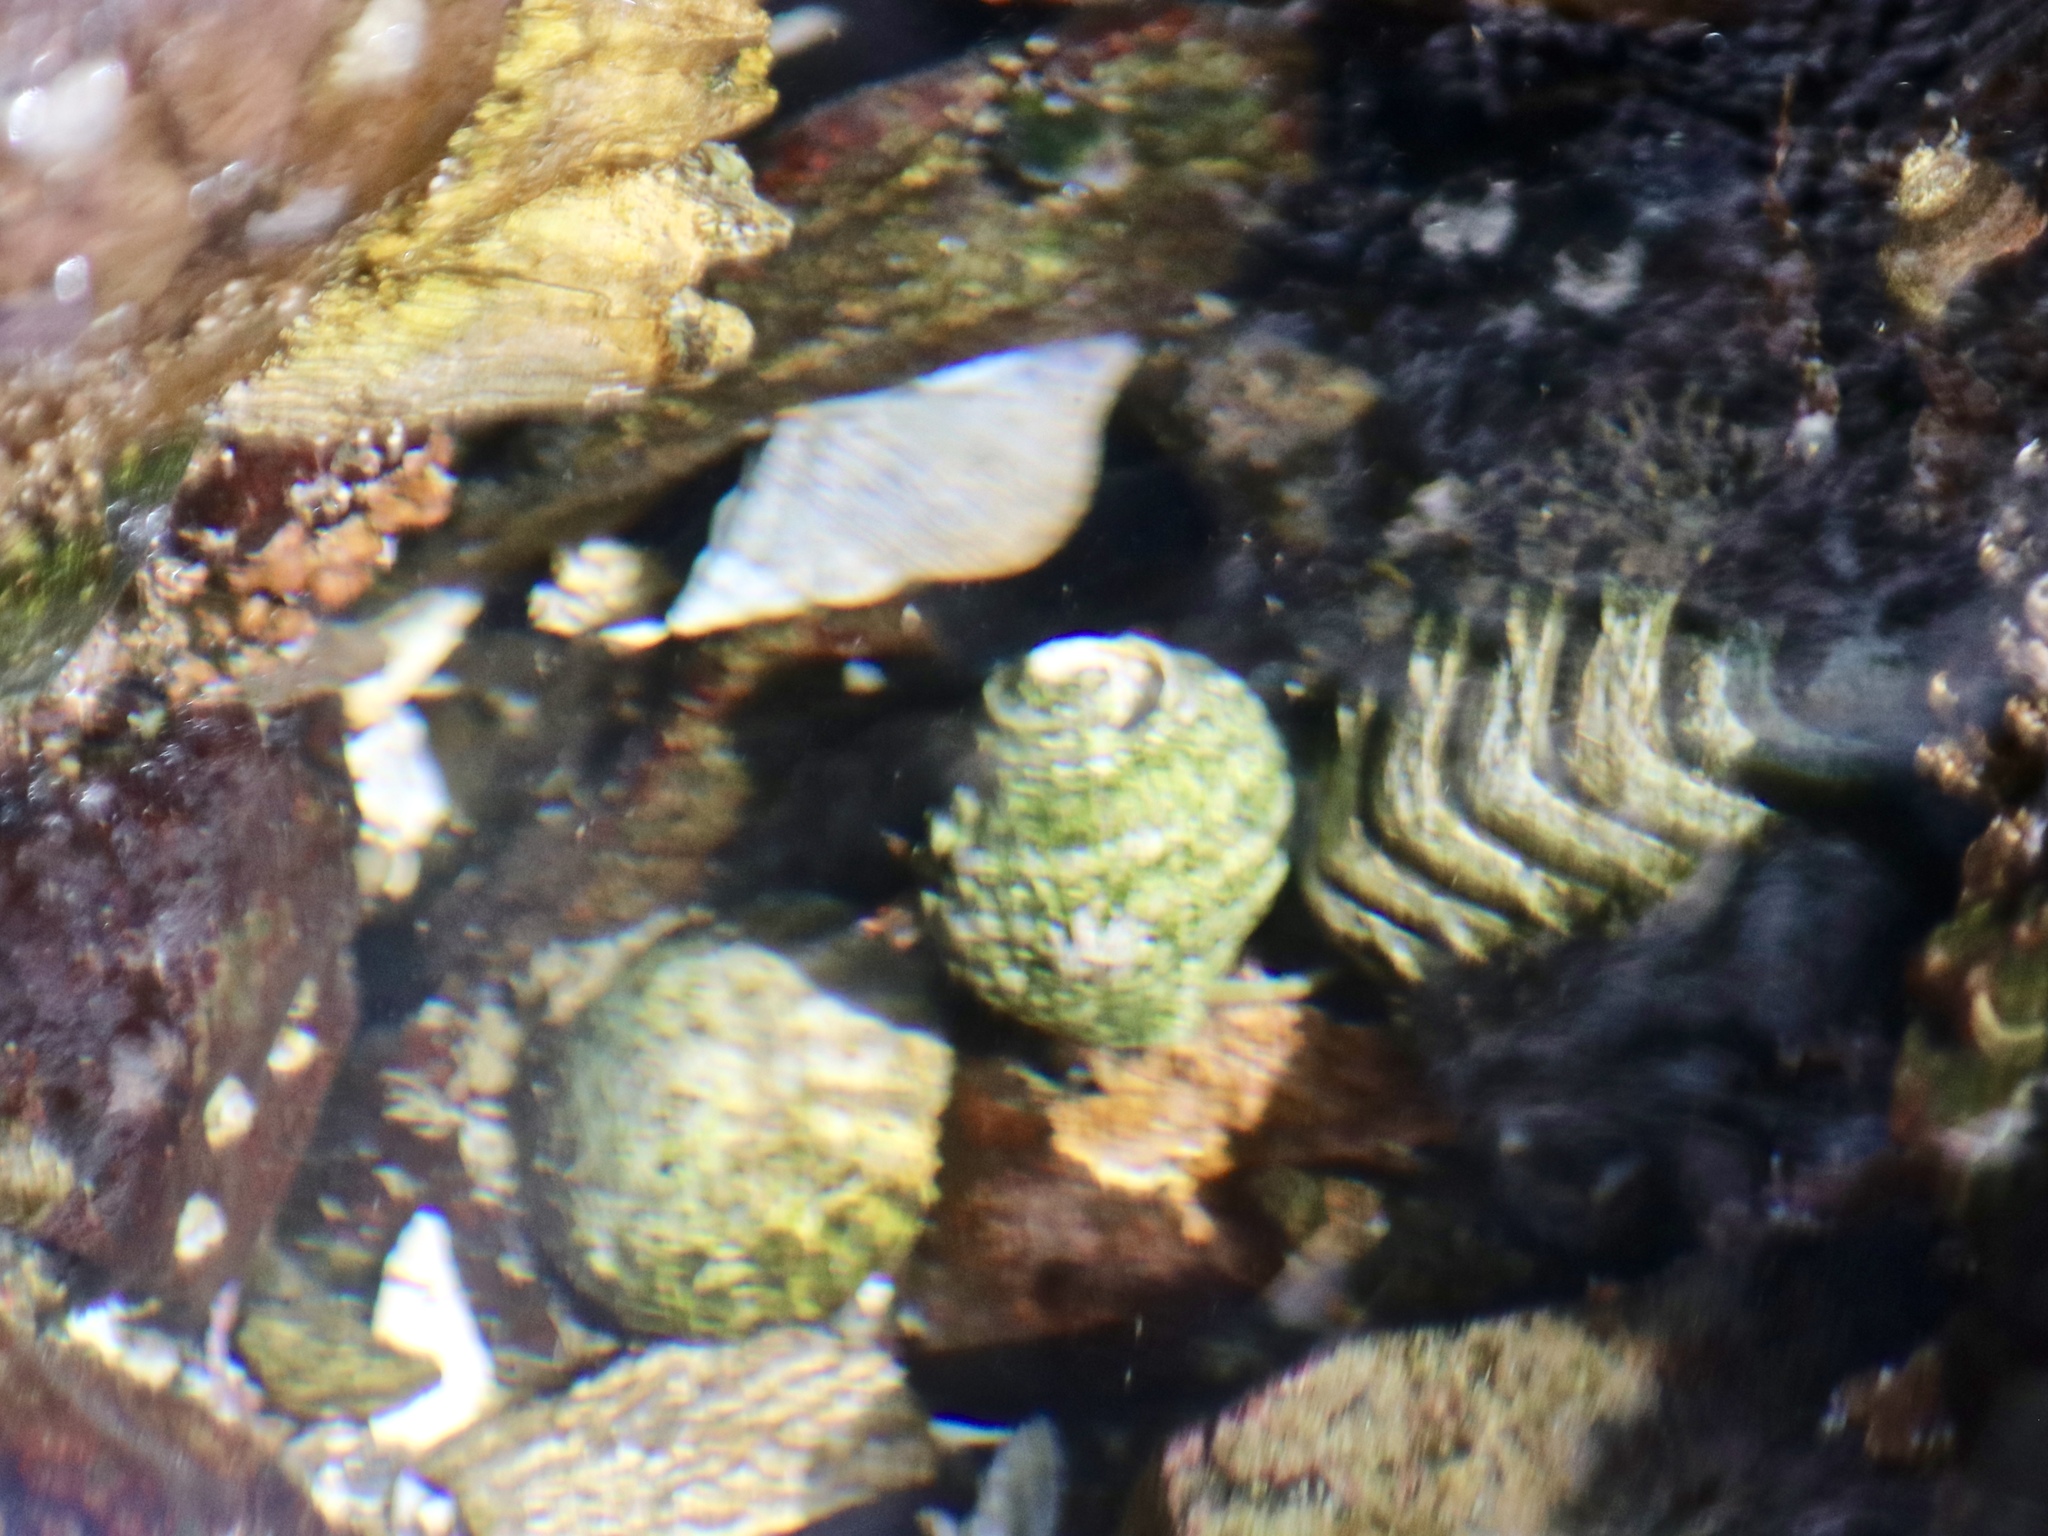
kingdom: Animalia
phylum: Mollusca
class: Polyplacophora
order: Chitonida
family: Mopaliidae
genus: Mopalia
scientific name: Mopalia muscosa
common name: Mossy chiton
